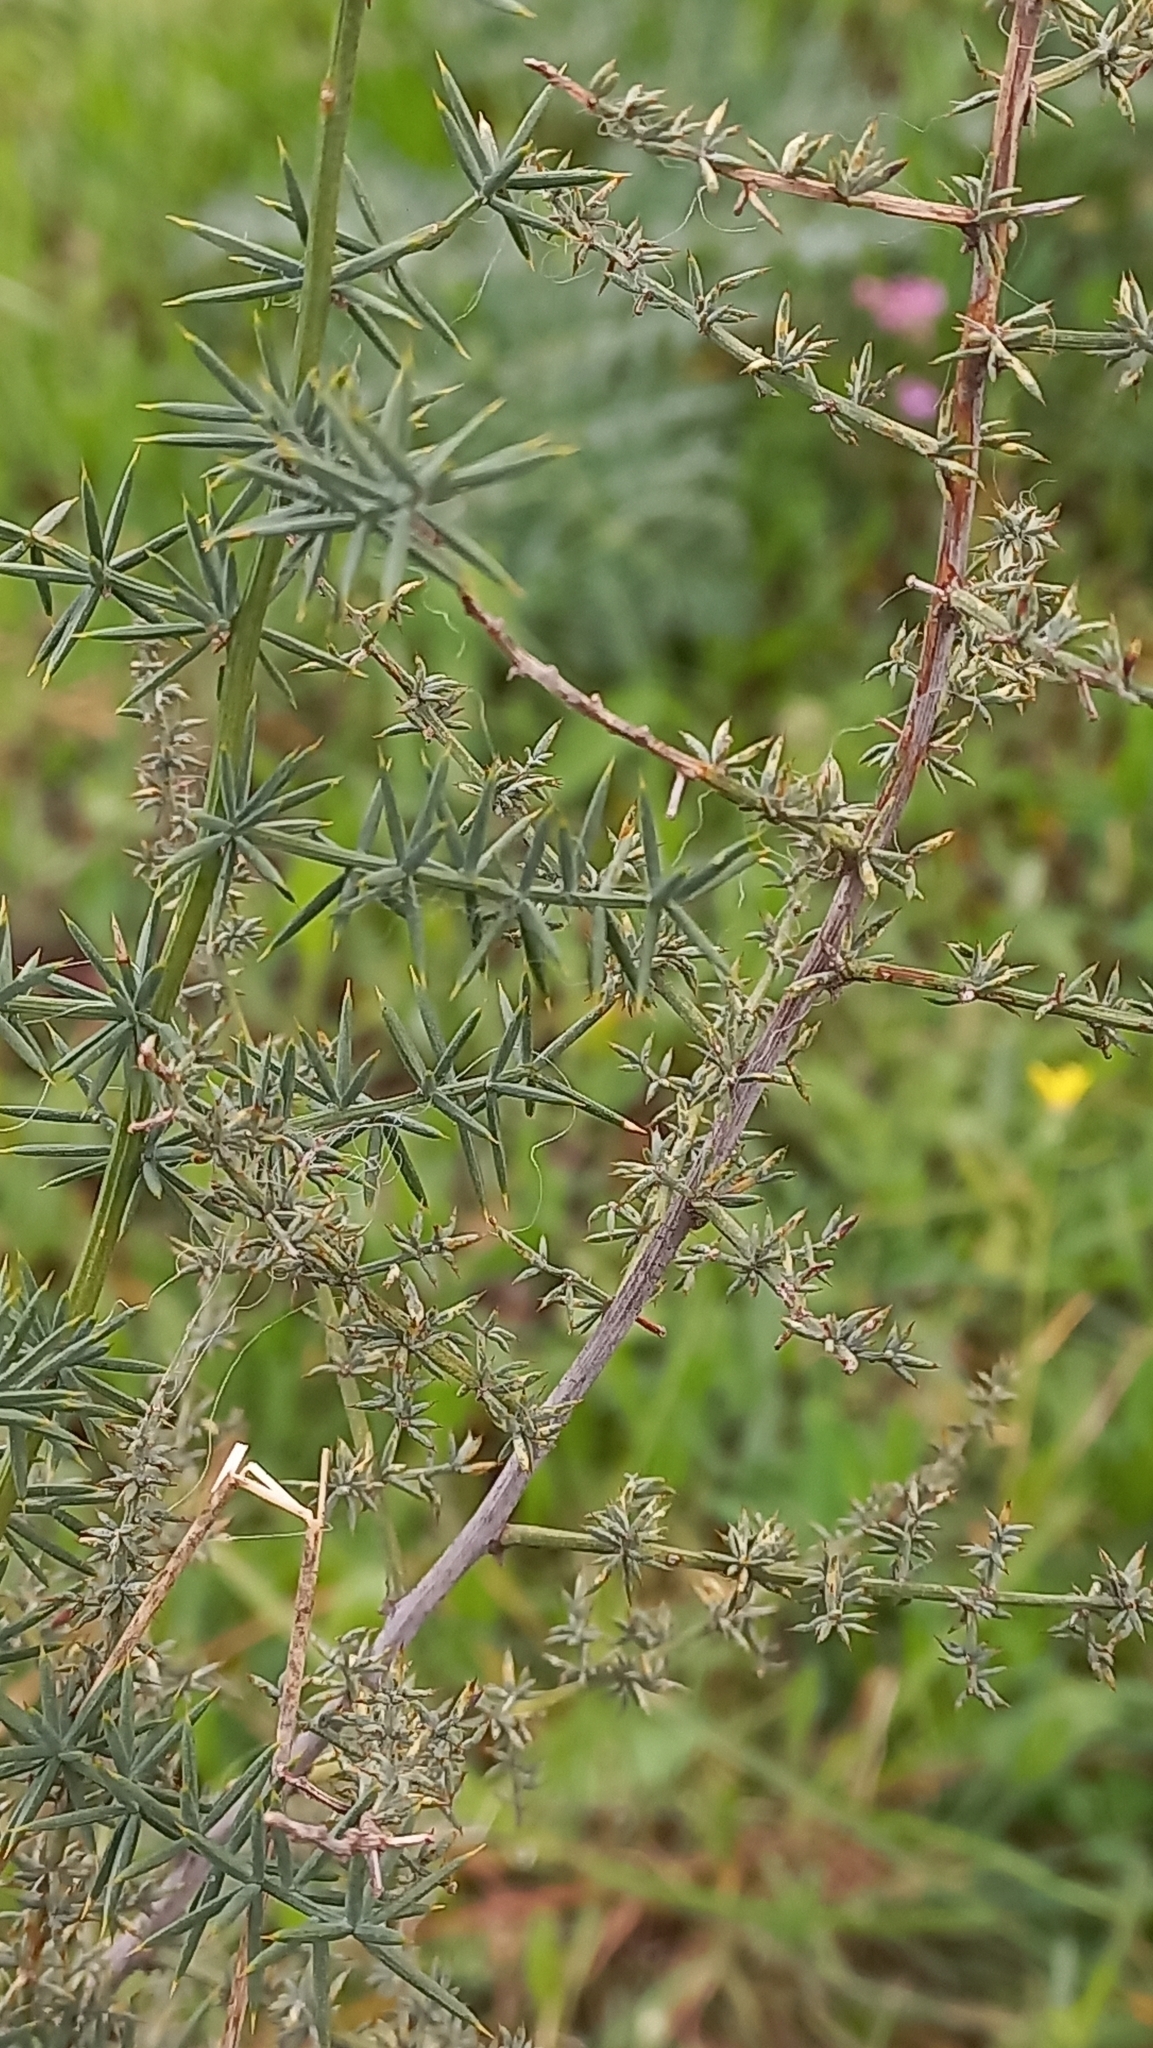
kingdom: Plantae
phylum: Tracheophyta
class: Liliopsida
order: Asparagales
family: Asparagaceae
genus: Asparagus
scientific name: Asparagus acutifolius
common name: Wild asparagus
